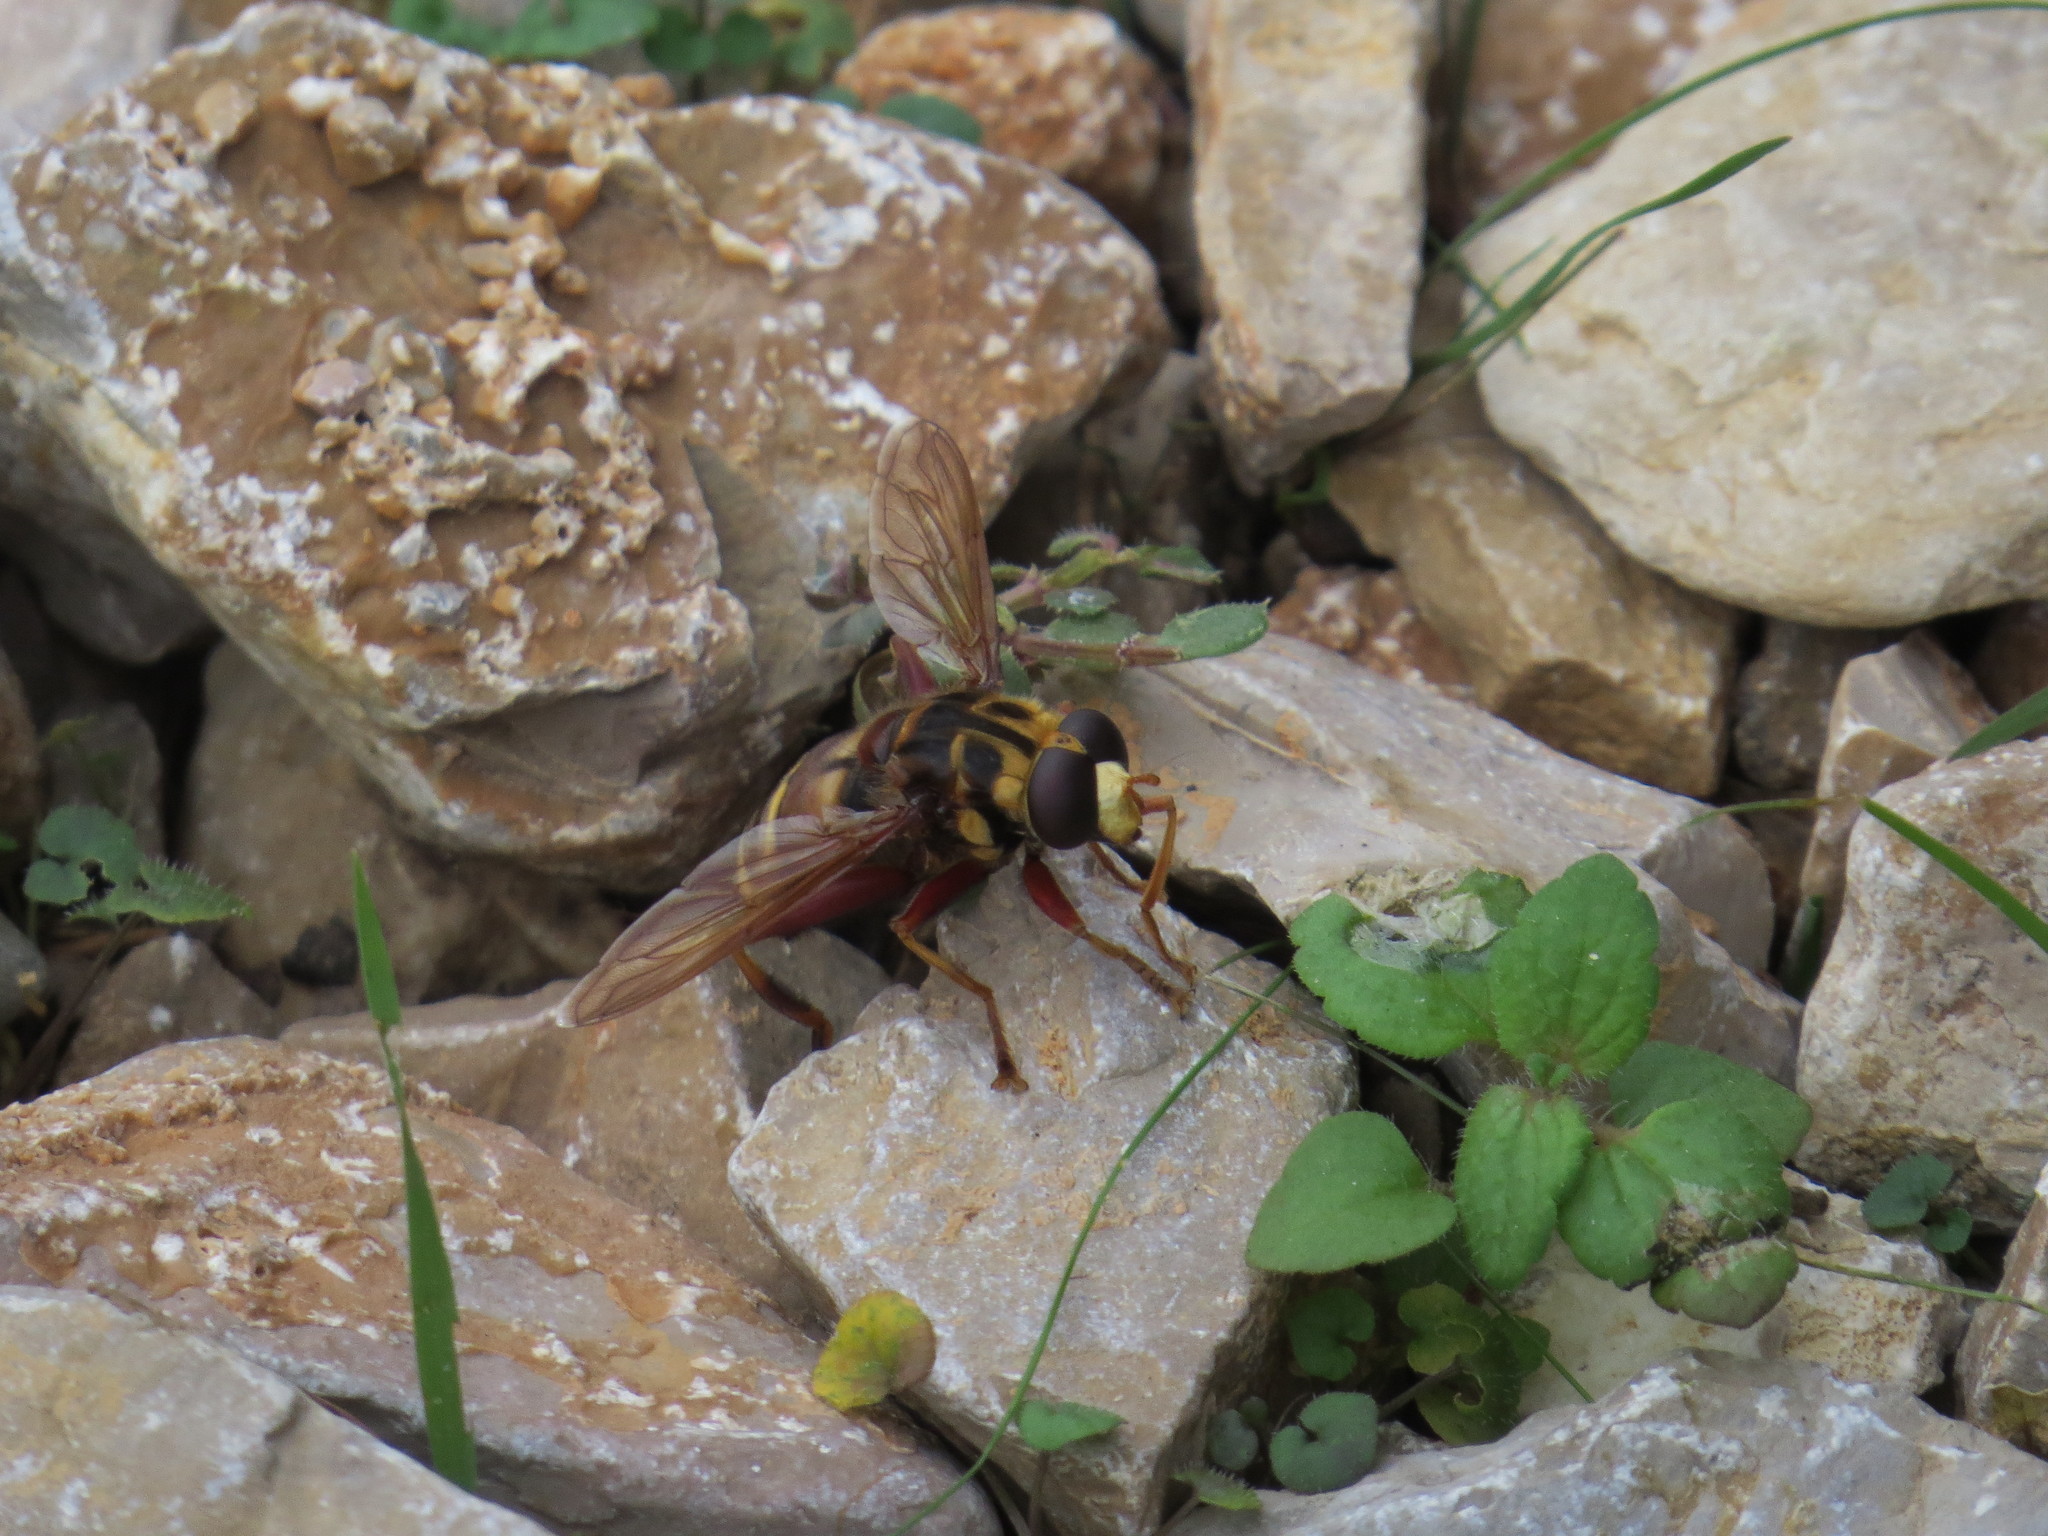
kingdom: Animalia
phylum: Arthropoda
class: Insecta
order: Diptera
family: Syrphidae
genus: Milesia
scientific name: Milesia crabroniformis
